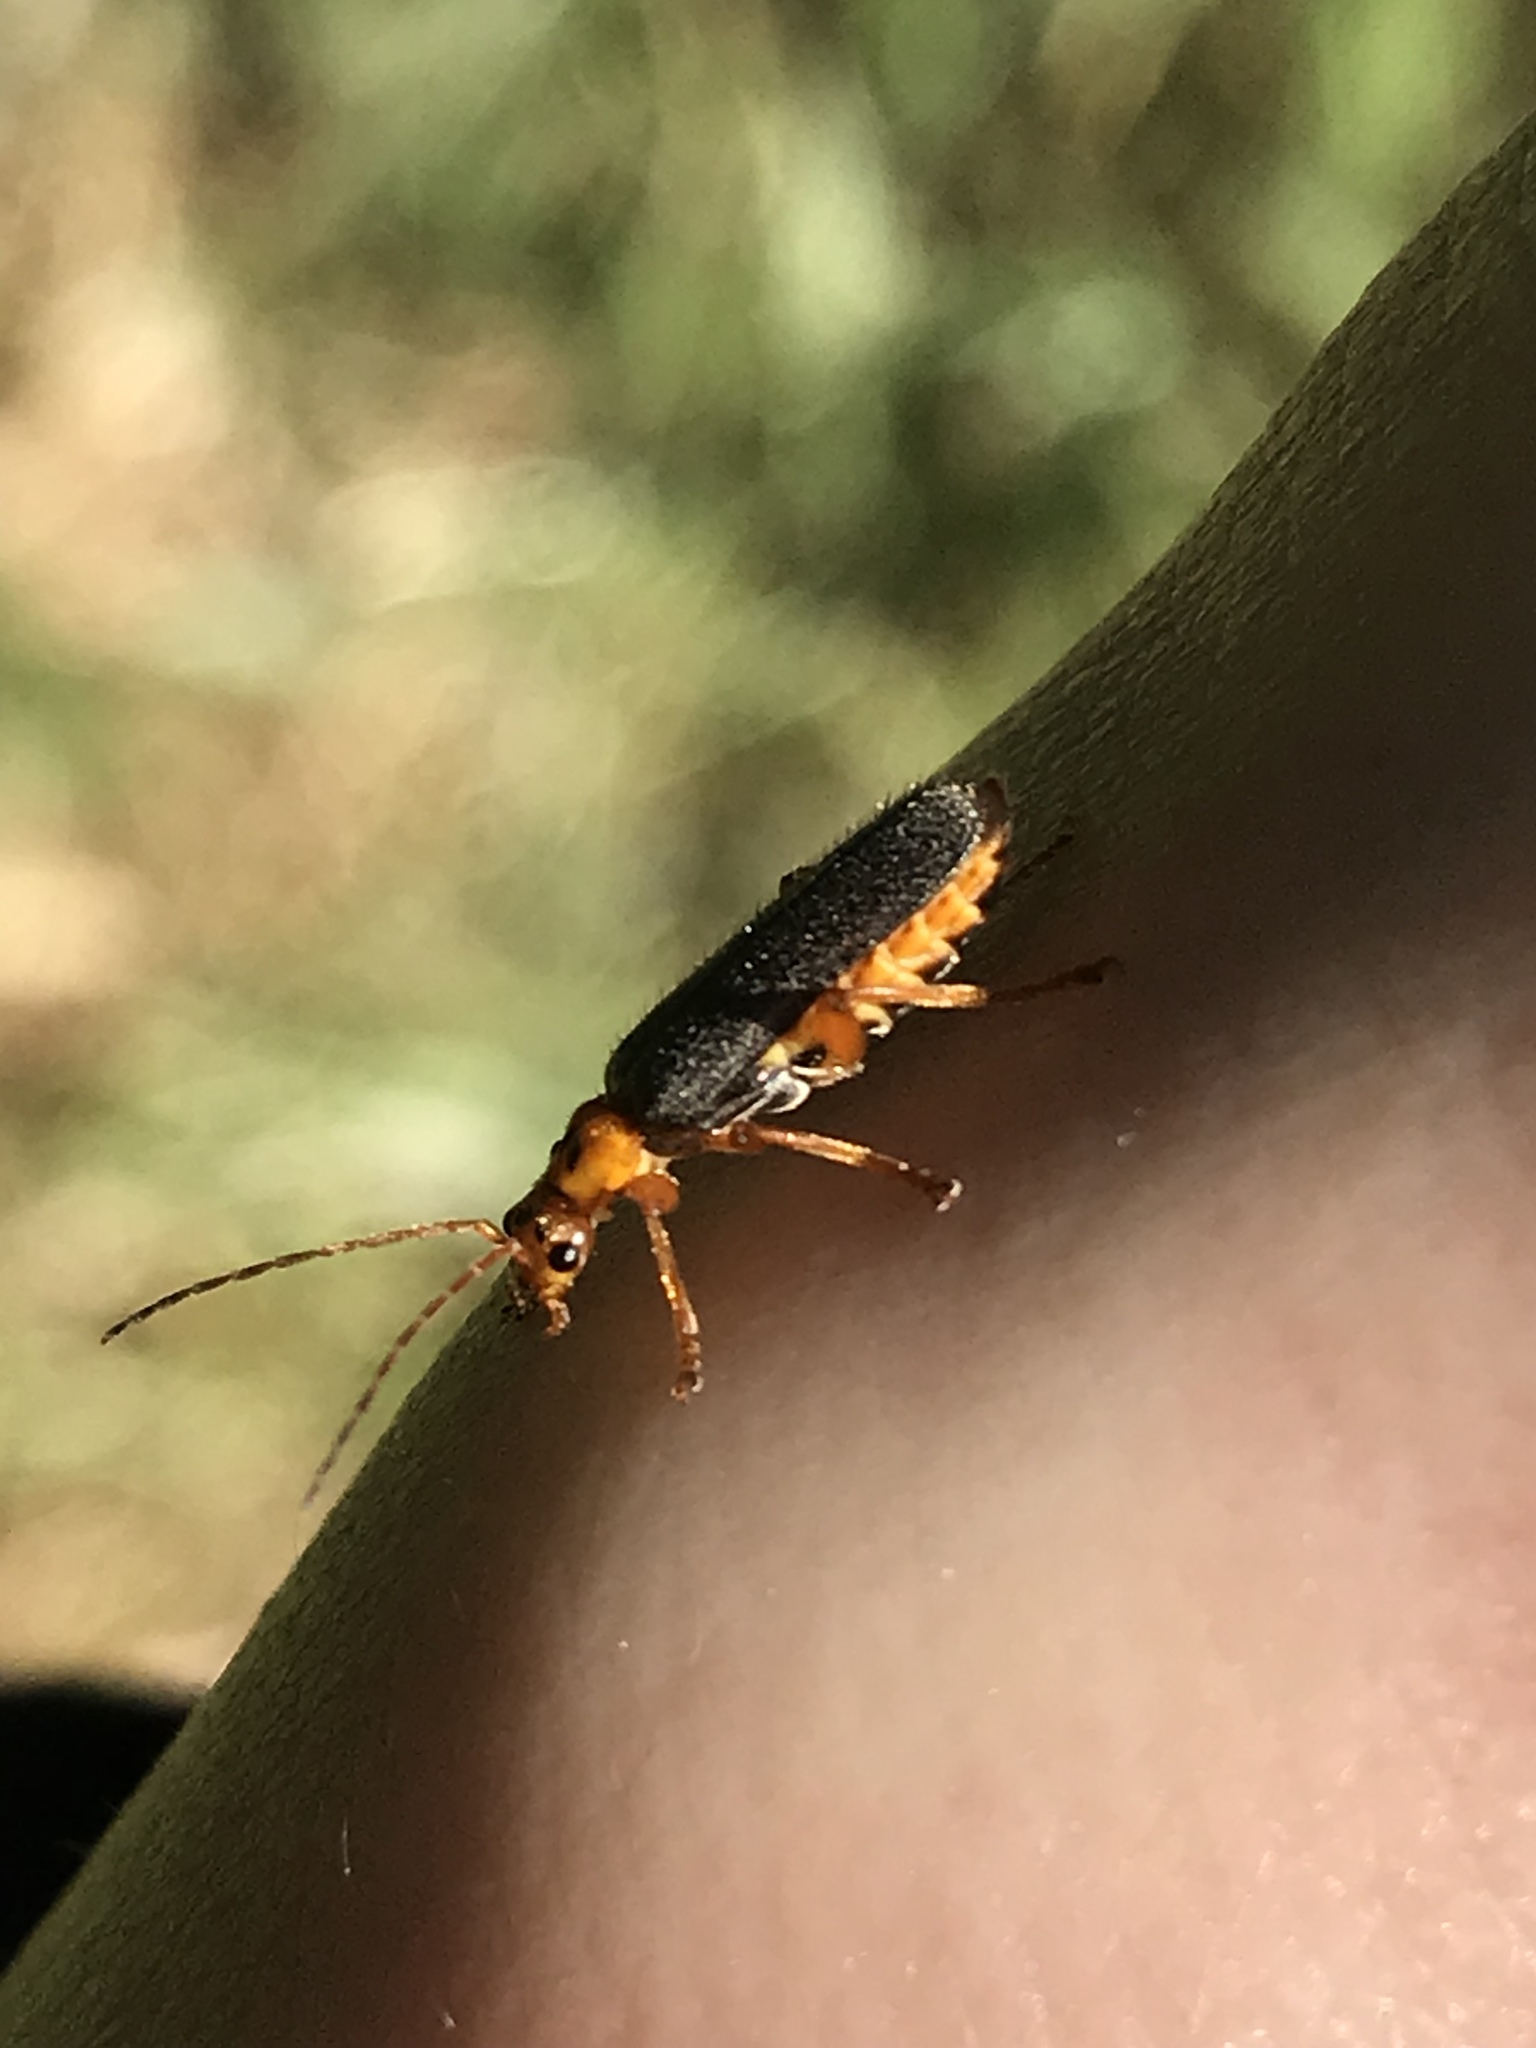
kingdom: Animalia
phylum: Arthropoda
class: Insecta
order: Coleoptera
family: Cantharidae
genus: Cultellunguis
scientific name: Cultellunguis americanus
